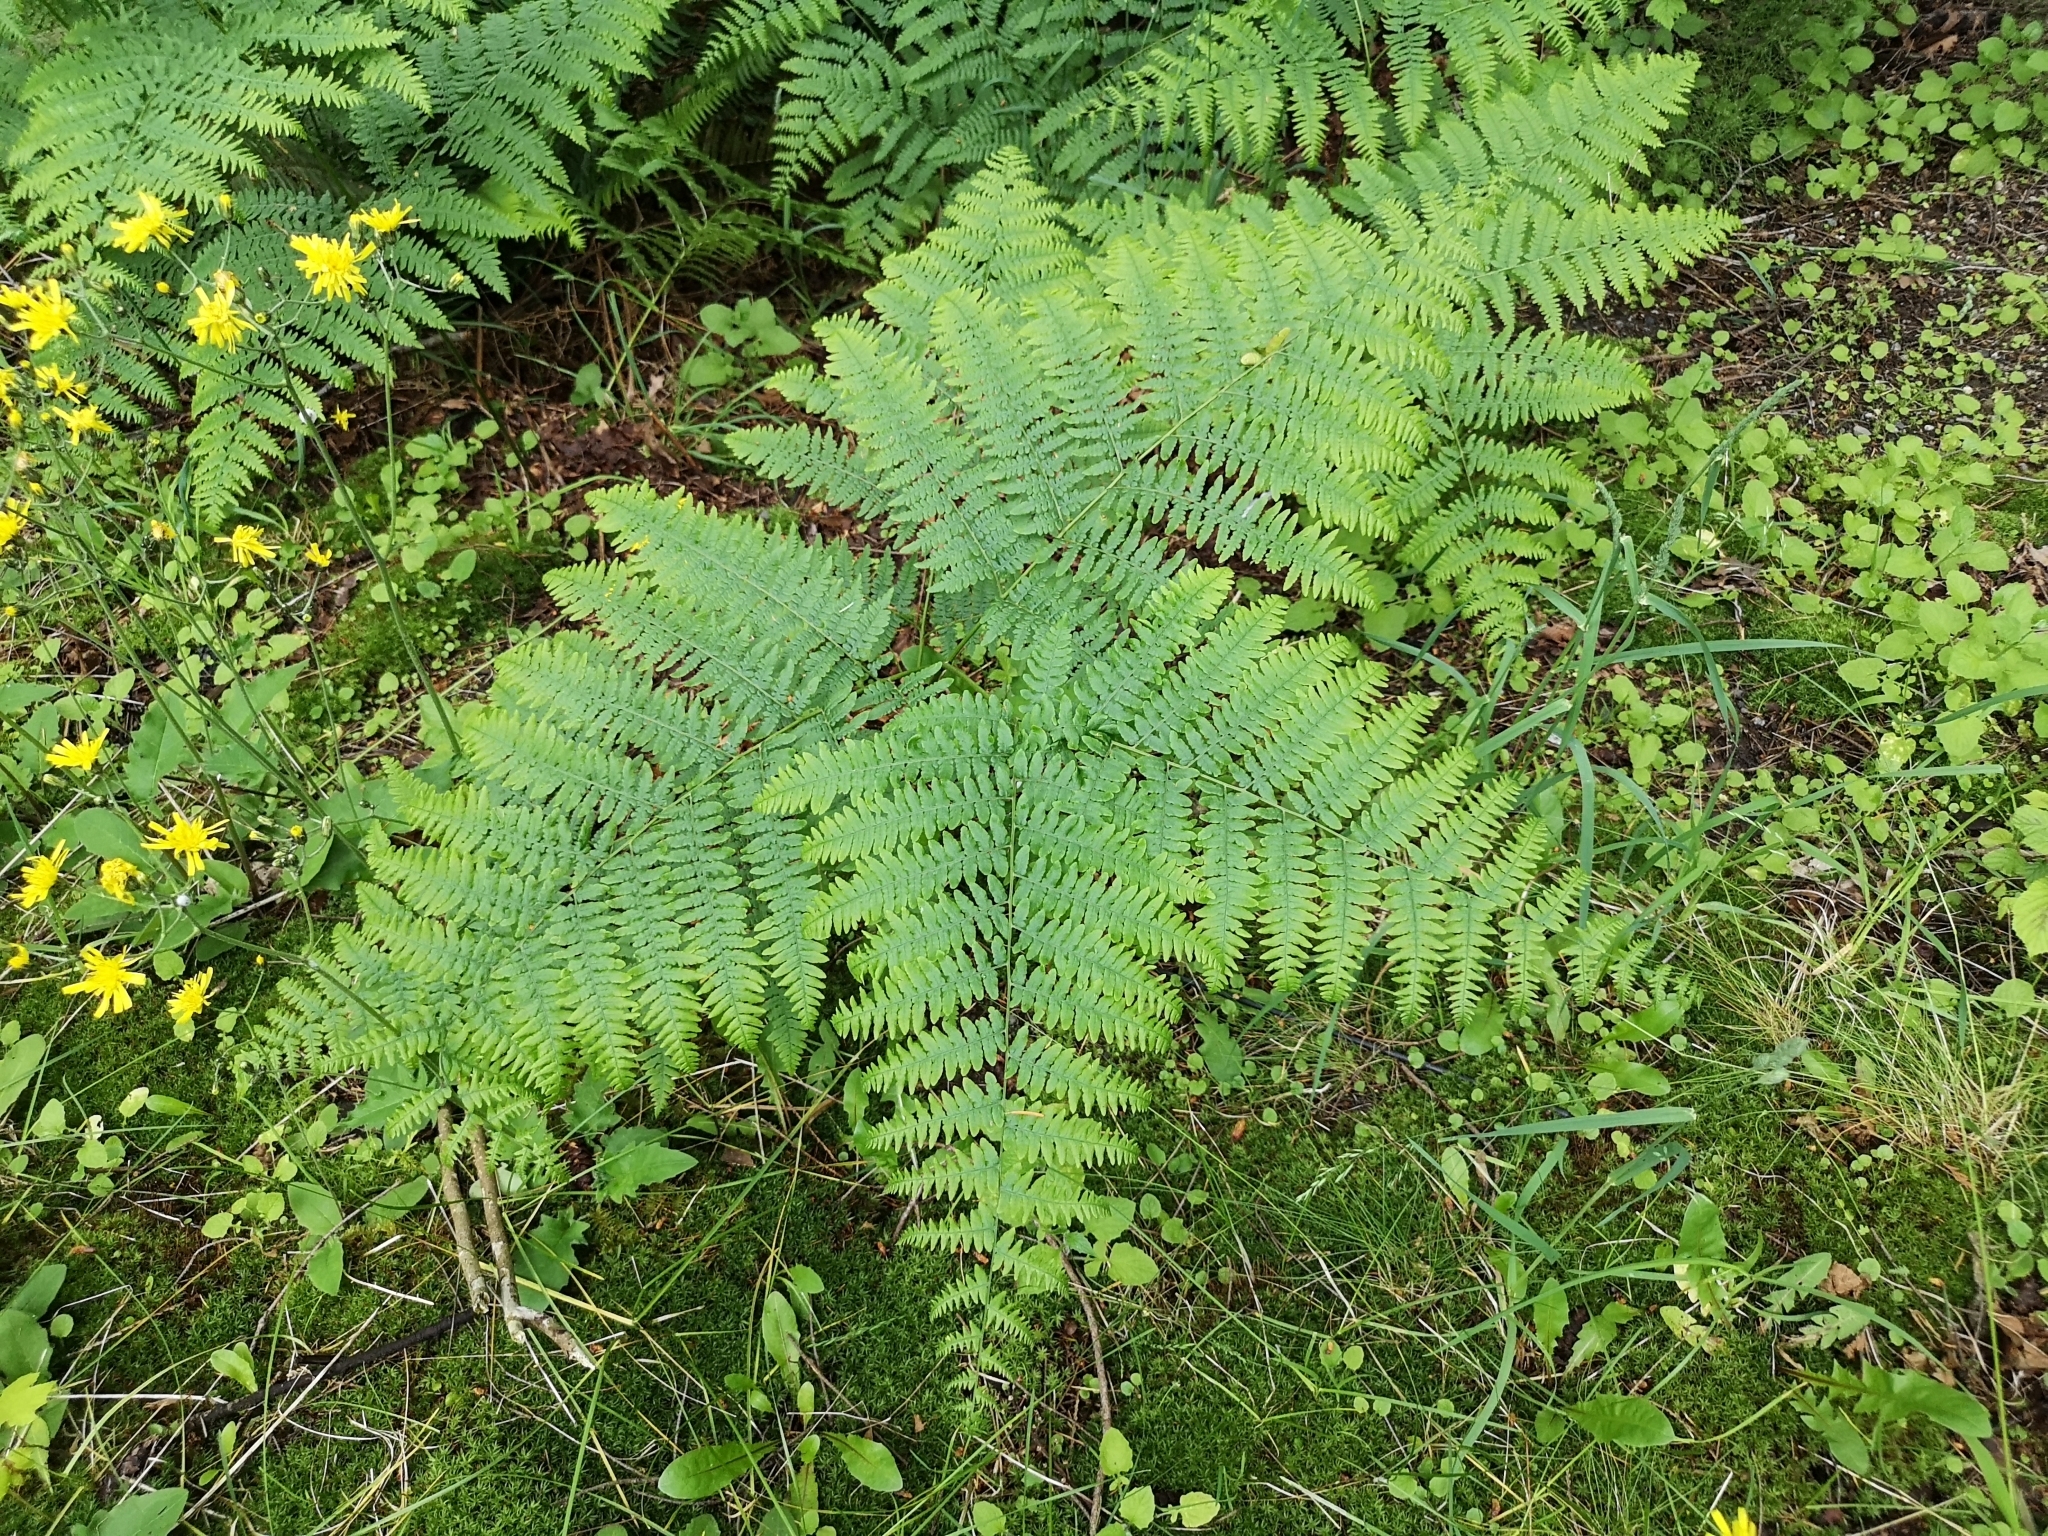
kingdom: Plantae
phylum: Tracheophyta
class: Polypodiopsida
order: Polypodiales
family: Dennstaedtiaceae
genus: Pteridium
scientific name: Pteridium aquilinum
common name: Bracken
